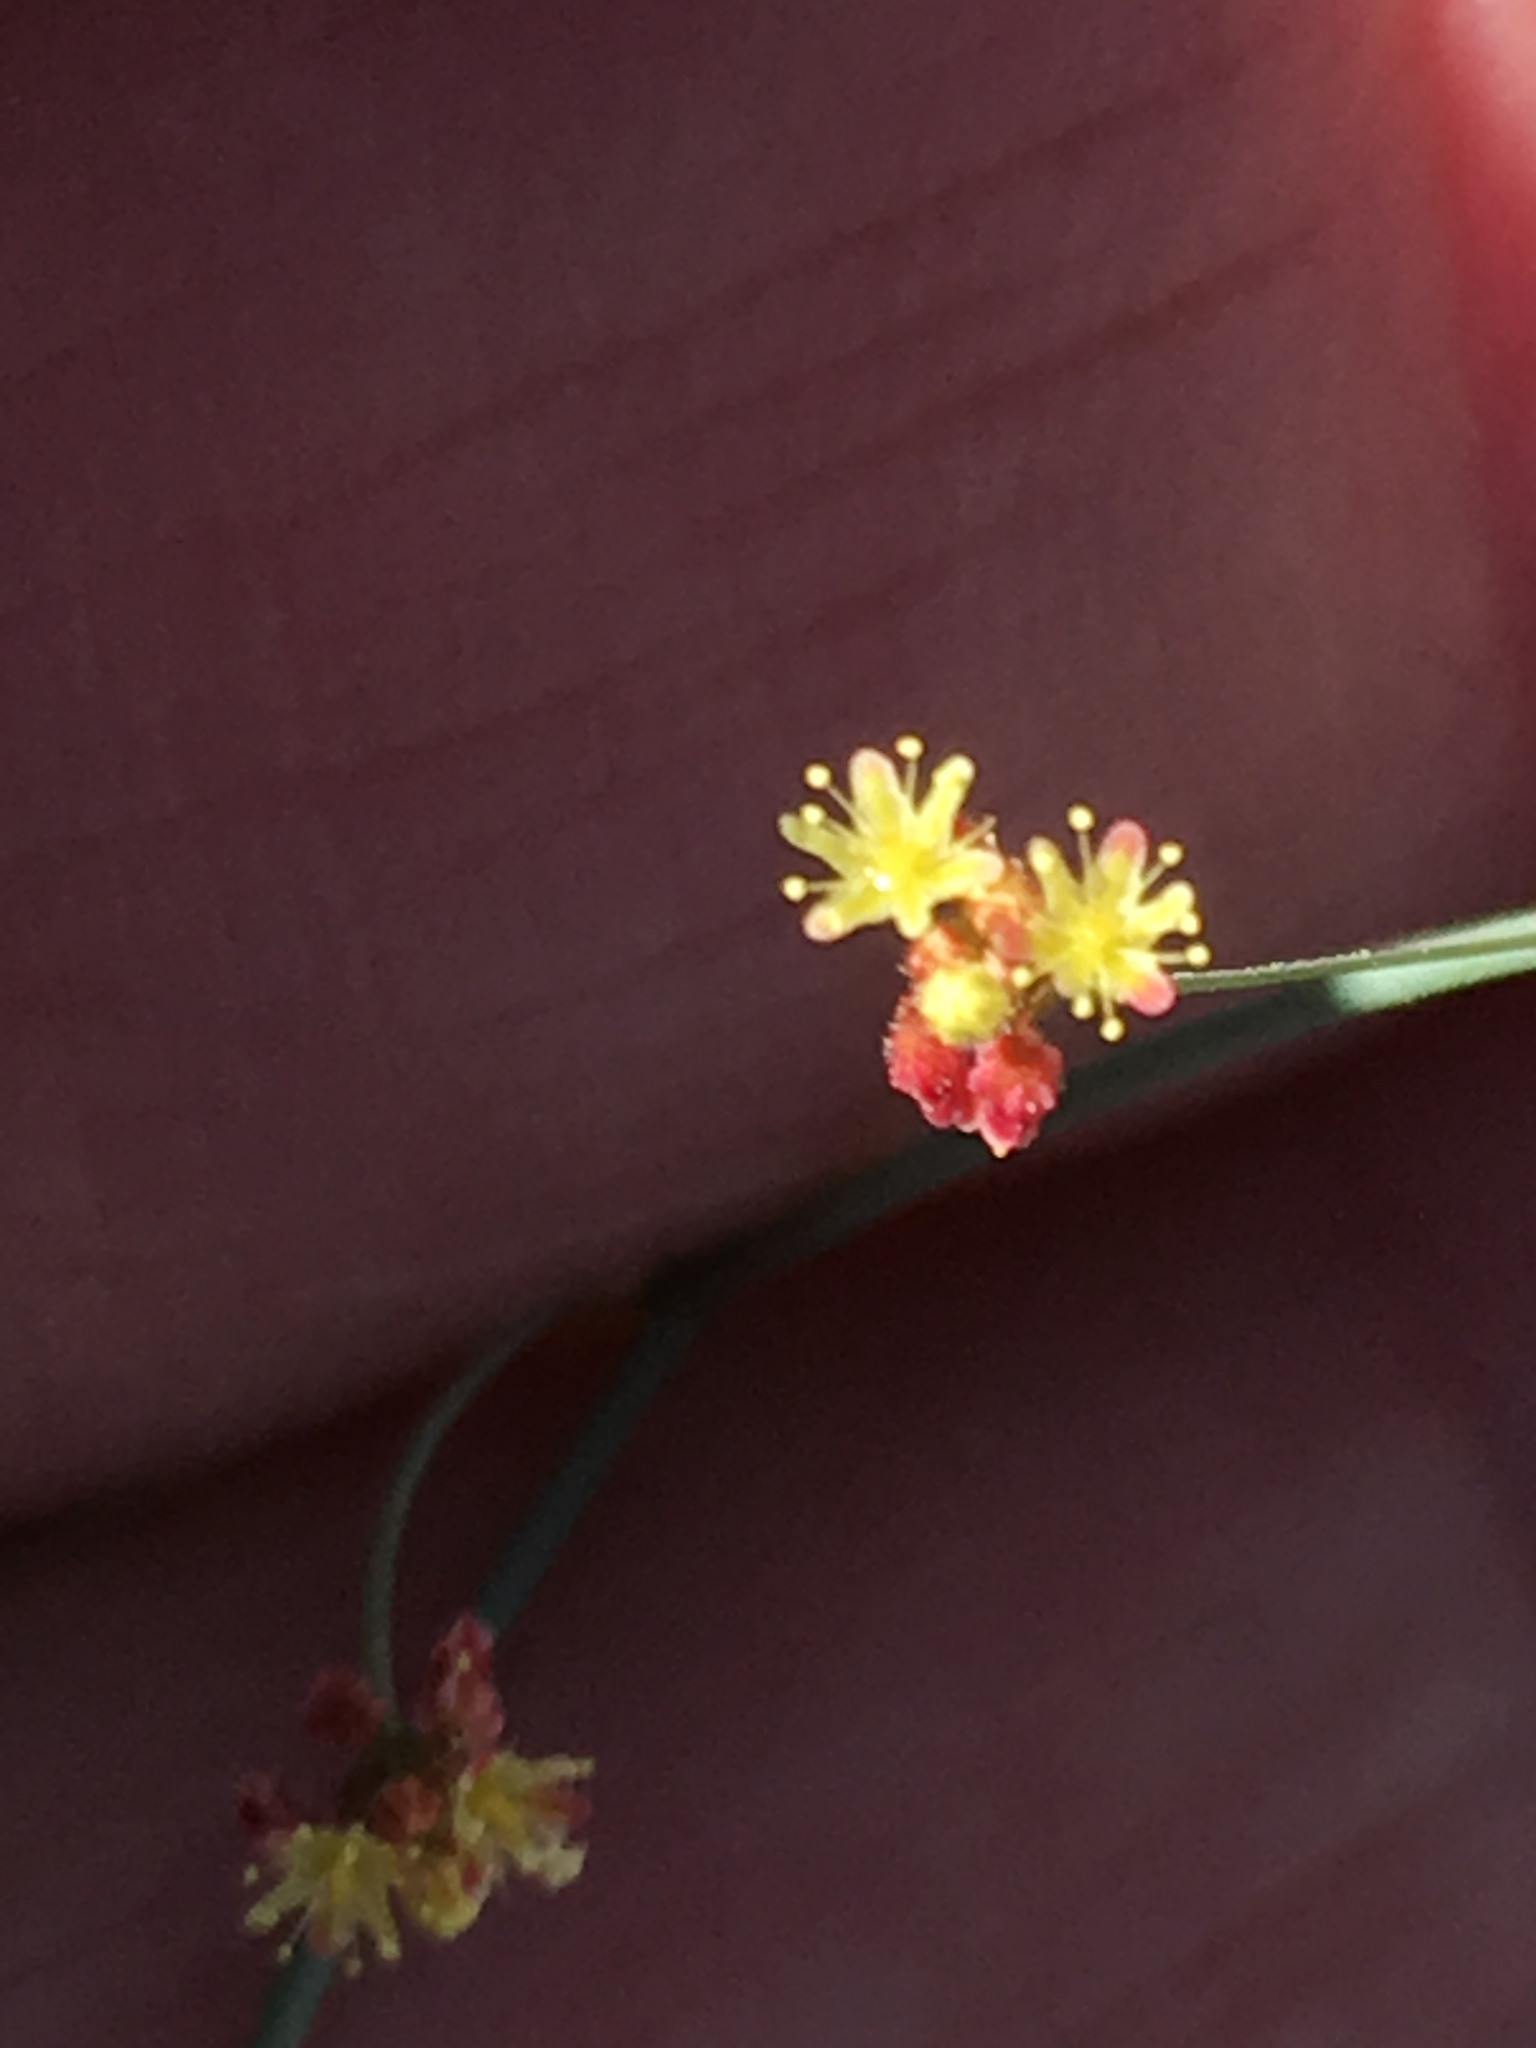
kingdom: Plantae
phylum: Tracheophyta
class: Magnoliopsida
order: Caryophyllales
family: Polygonaceae
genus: Eriogonum
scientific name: Eriogonum thomasii
